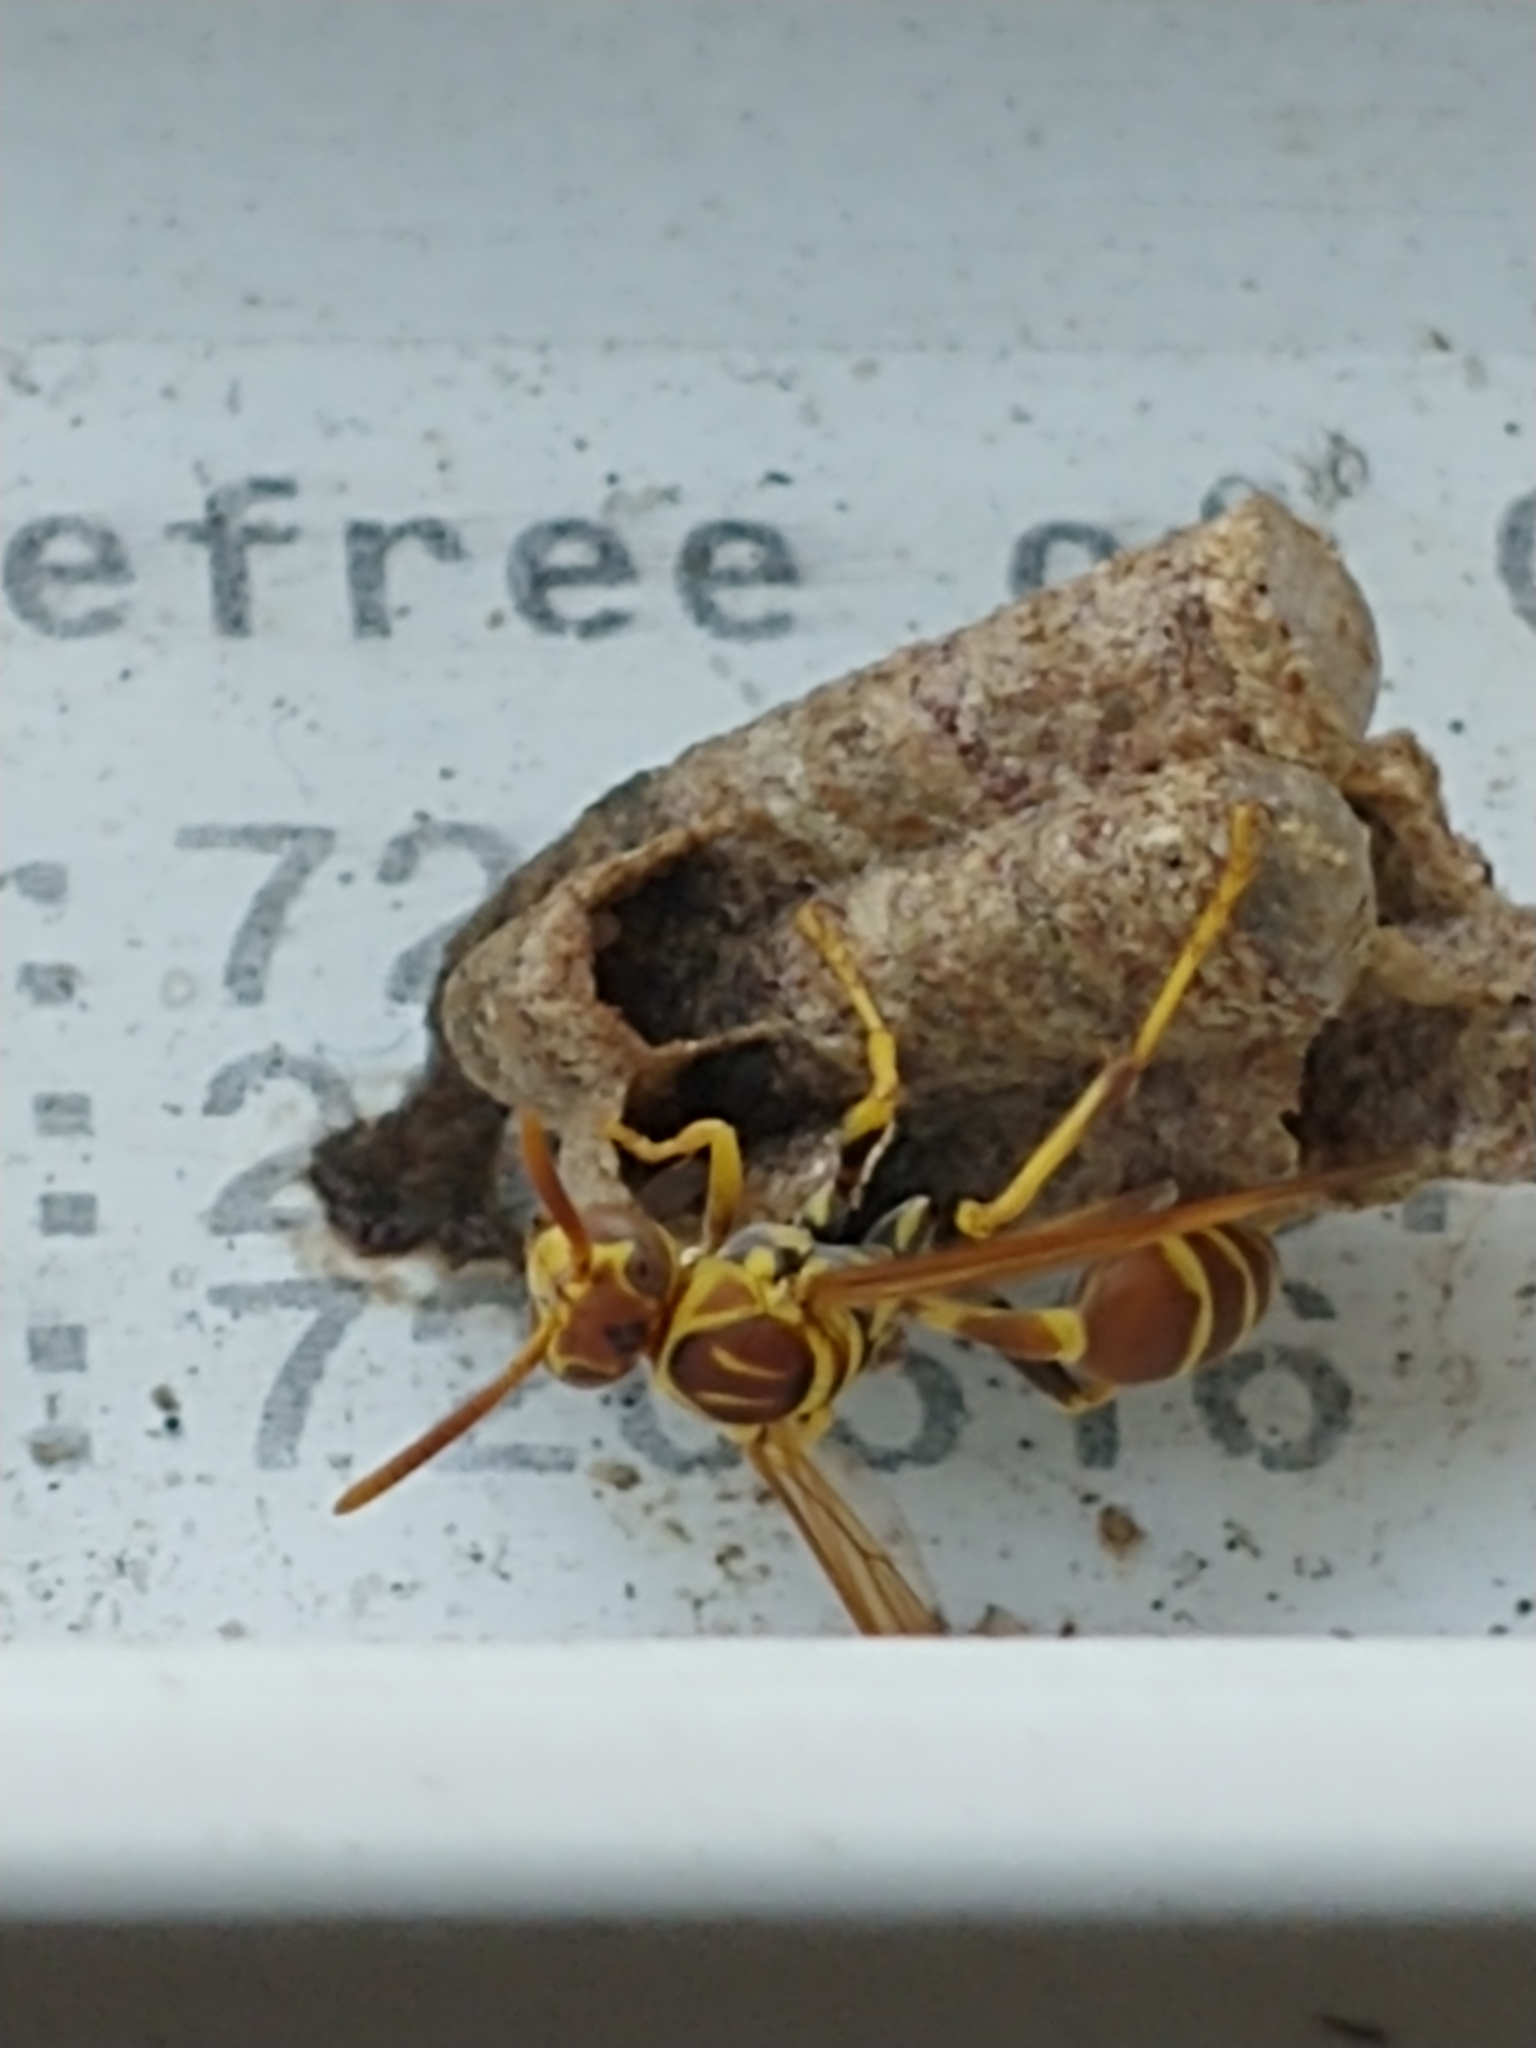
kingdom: Animalia
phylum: Arthropoda
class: Insecta
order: Hymenoptera
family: Vespidae
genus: Mischocyttarus
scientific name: Mischocyttarus mexicanus
